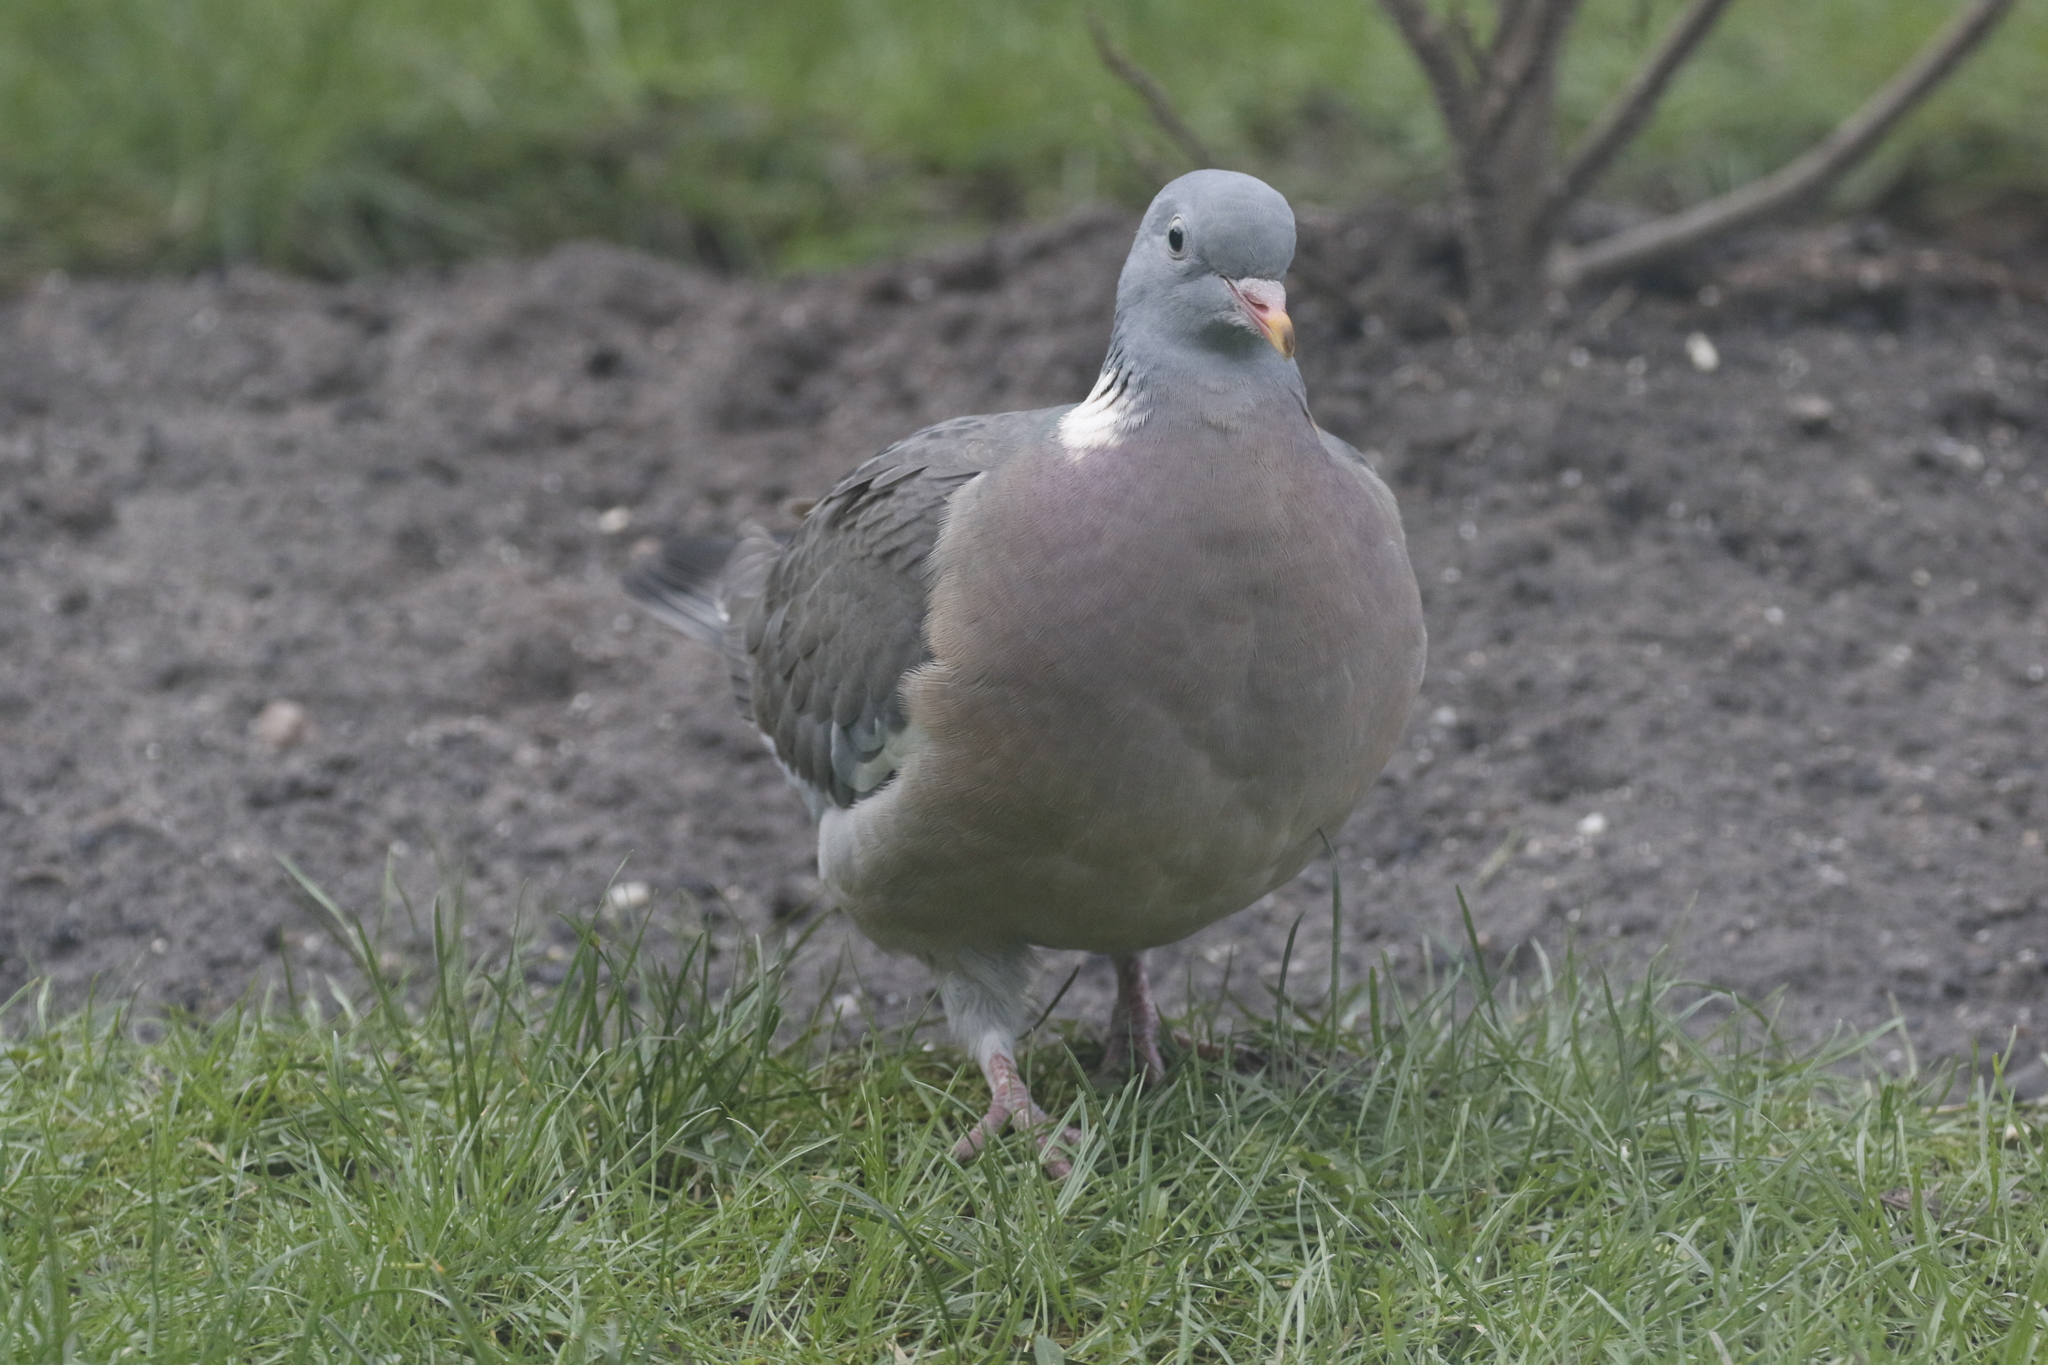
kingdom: Animalia
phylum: Chordata
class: Aves
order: Columbiformes
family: Columbidae
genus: Columba
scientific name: Columba palumbus
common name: Common wood pigeon
